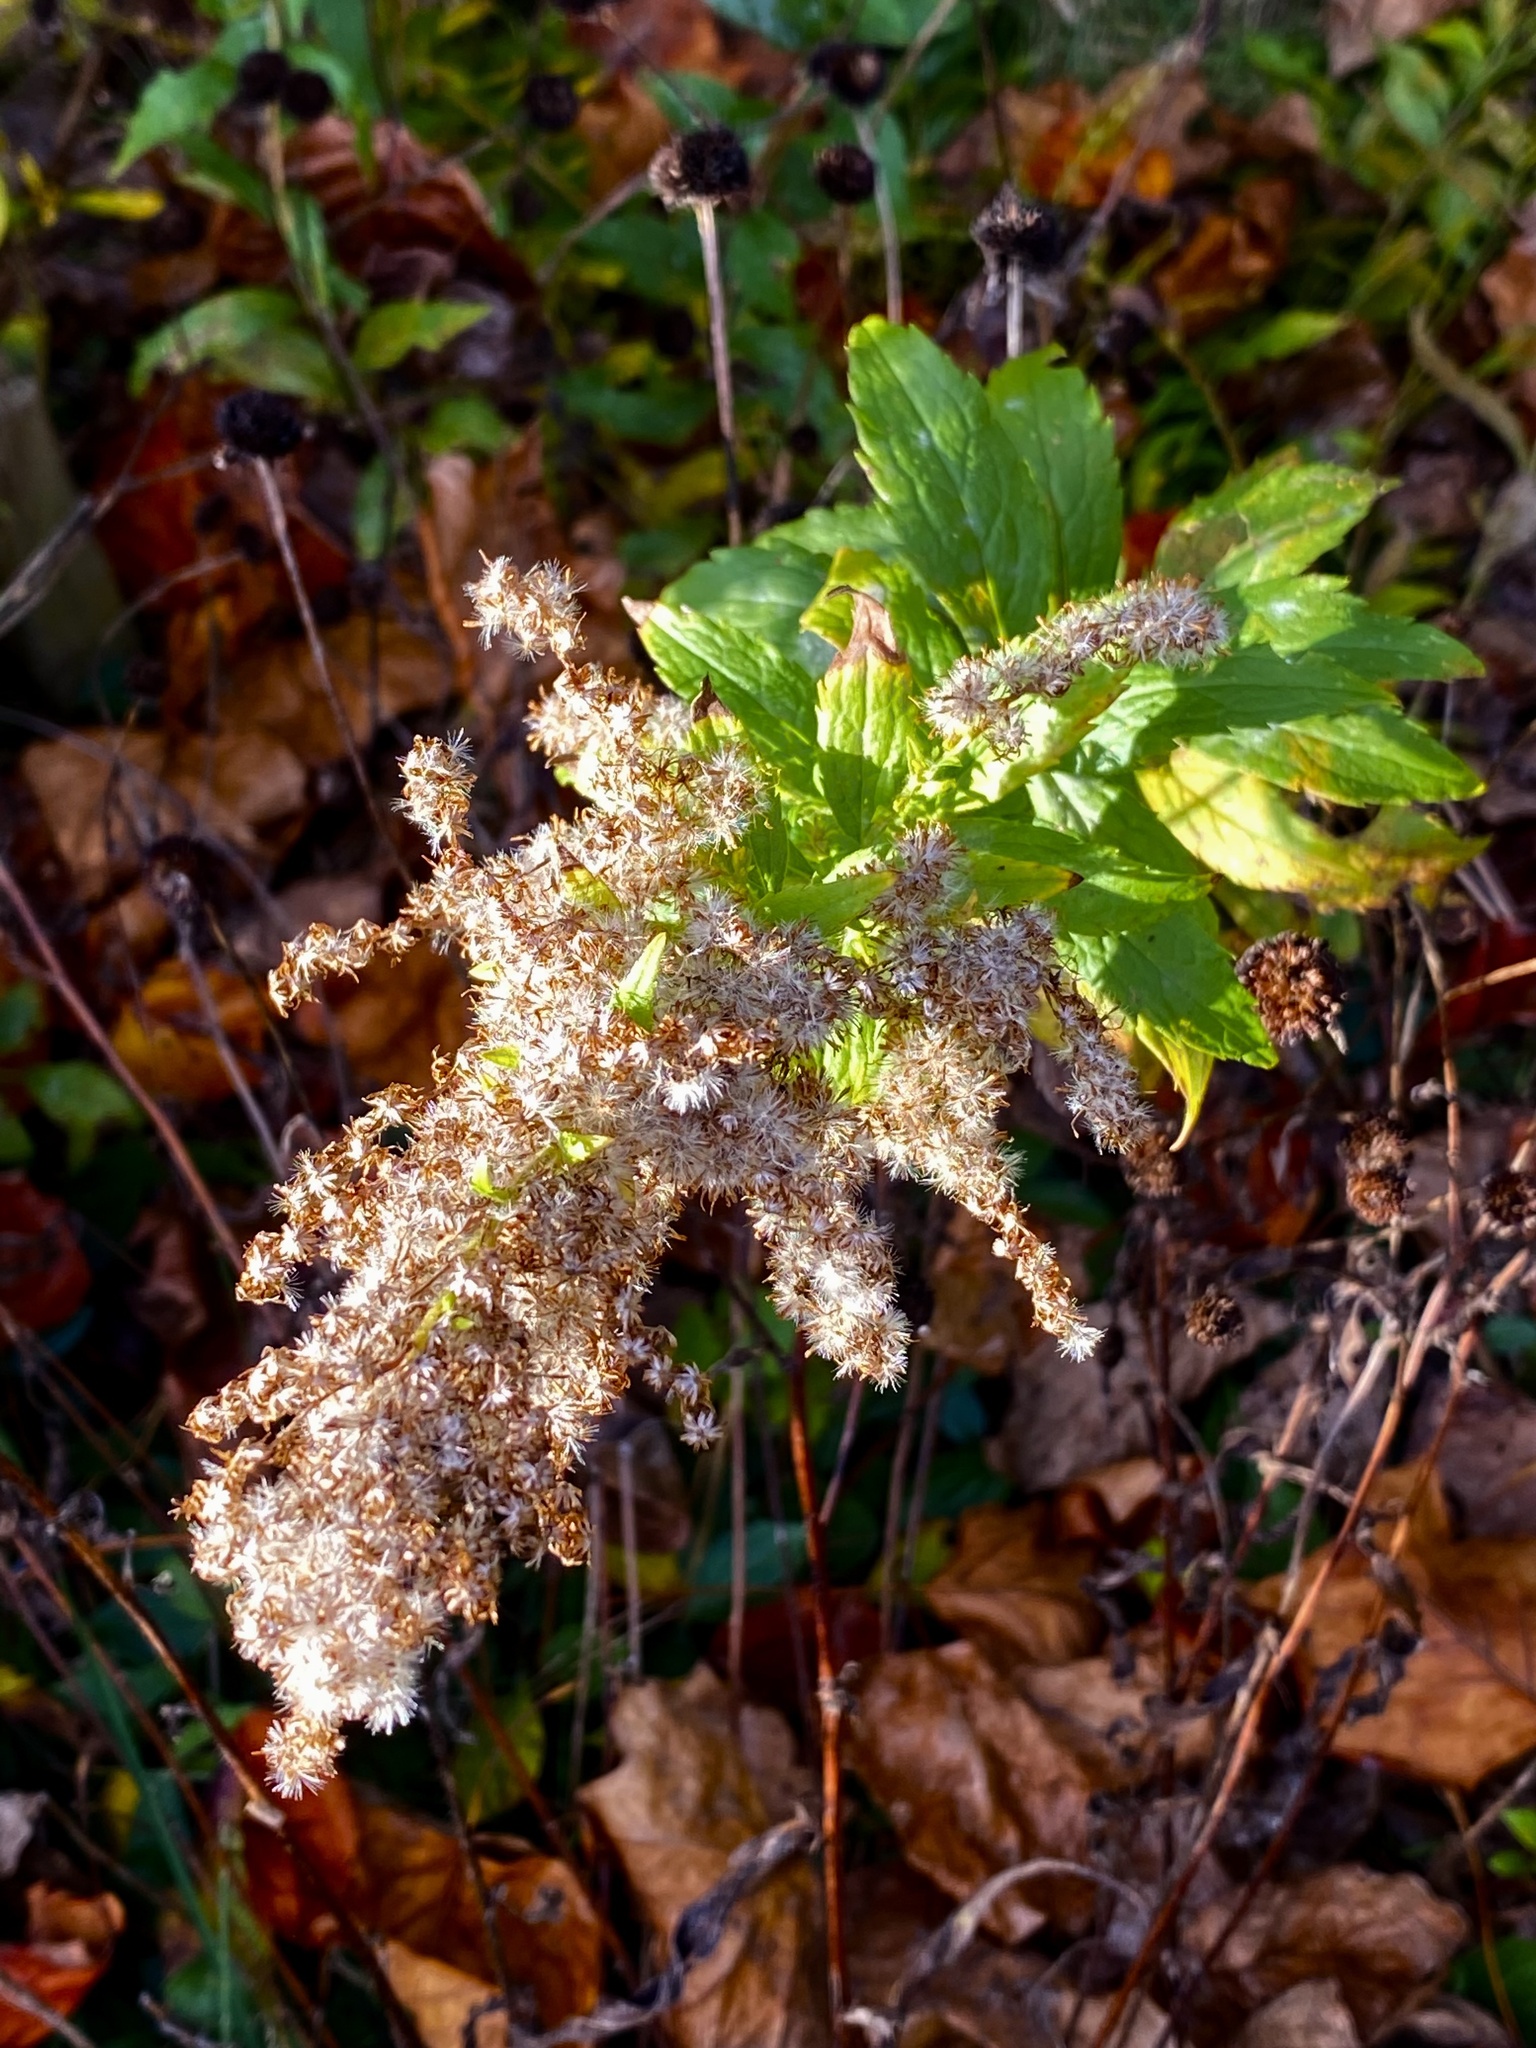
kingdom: Plantae
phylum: Tracheophyta
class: Magnoliopsida
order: Asterales
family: Asteraceae
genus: Solidago
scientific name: Solidago rugosa
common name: Rough-stemmed goldenrod
